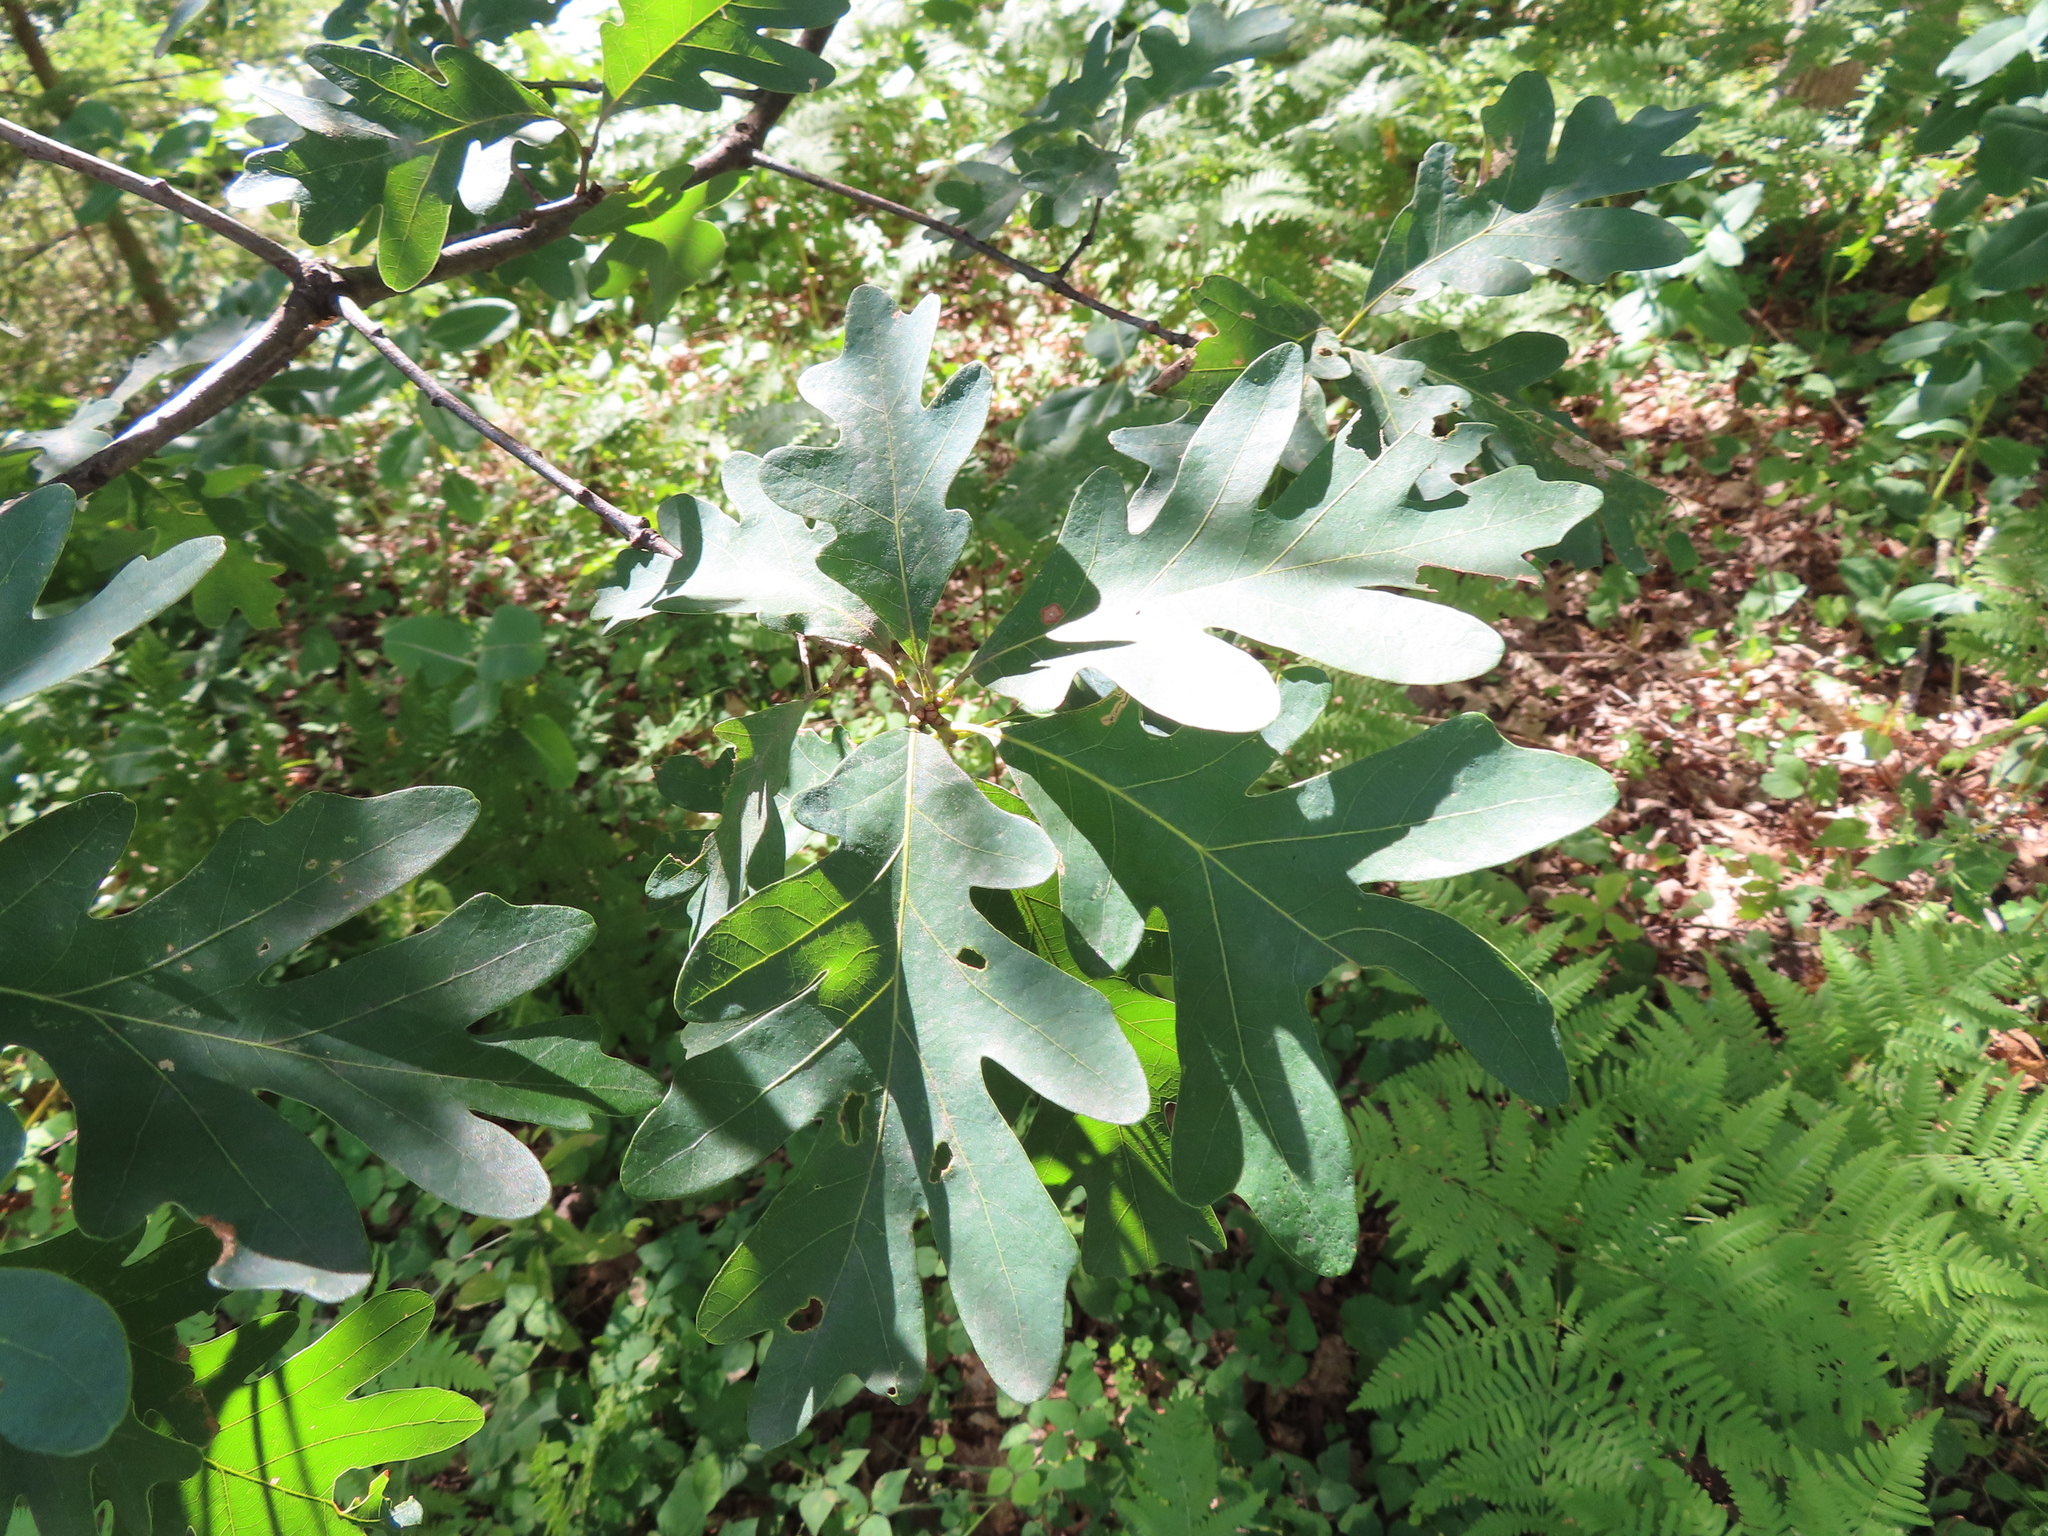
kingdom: Plantae
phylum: Tracheophyta
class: Magnoliopsida
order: Fagales
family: Fagaceae
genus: Quercus
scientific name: Quercus alba
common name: White oak
